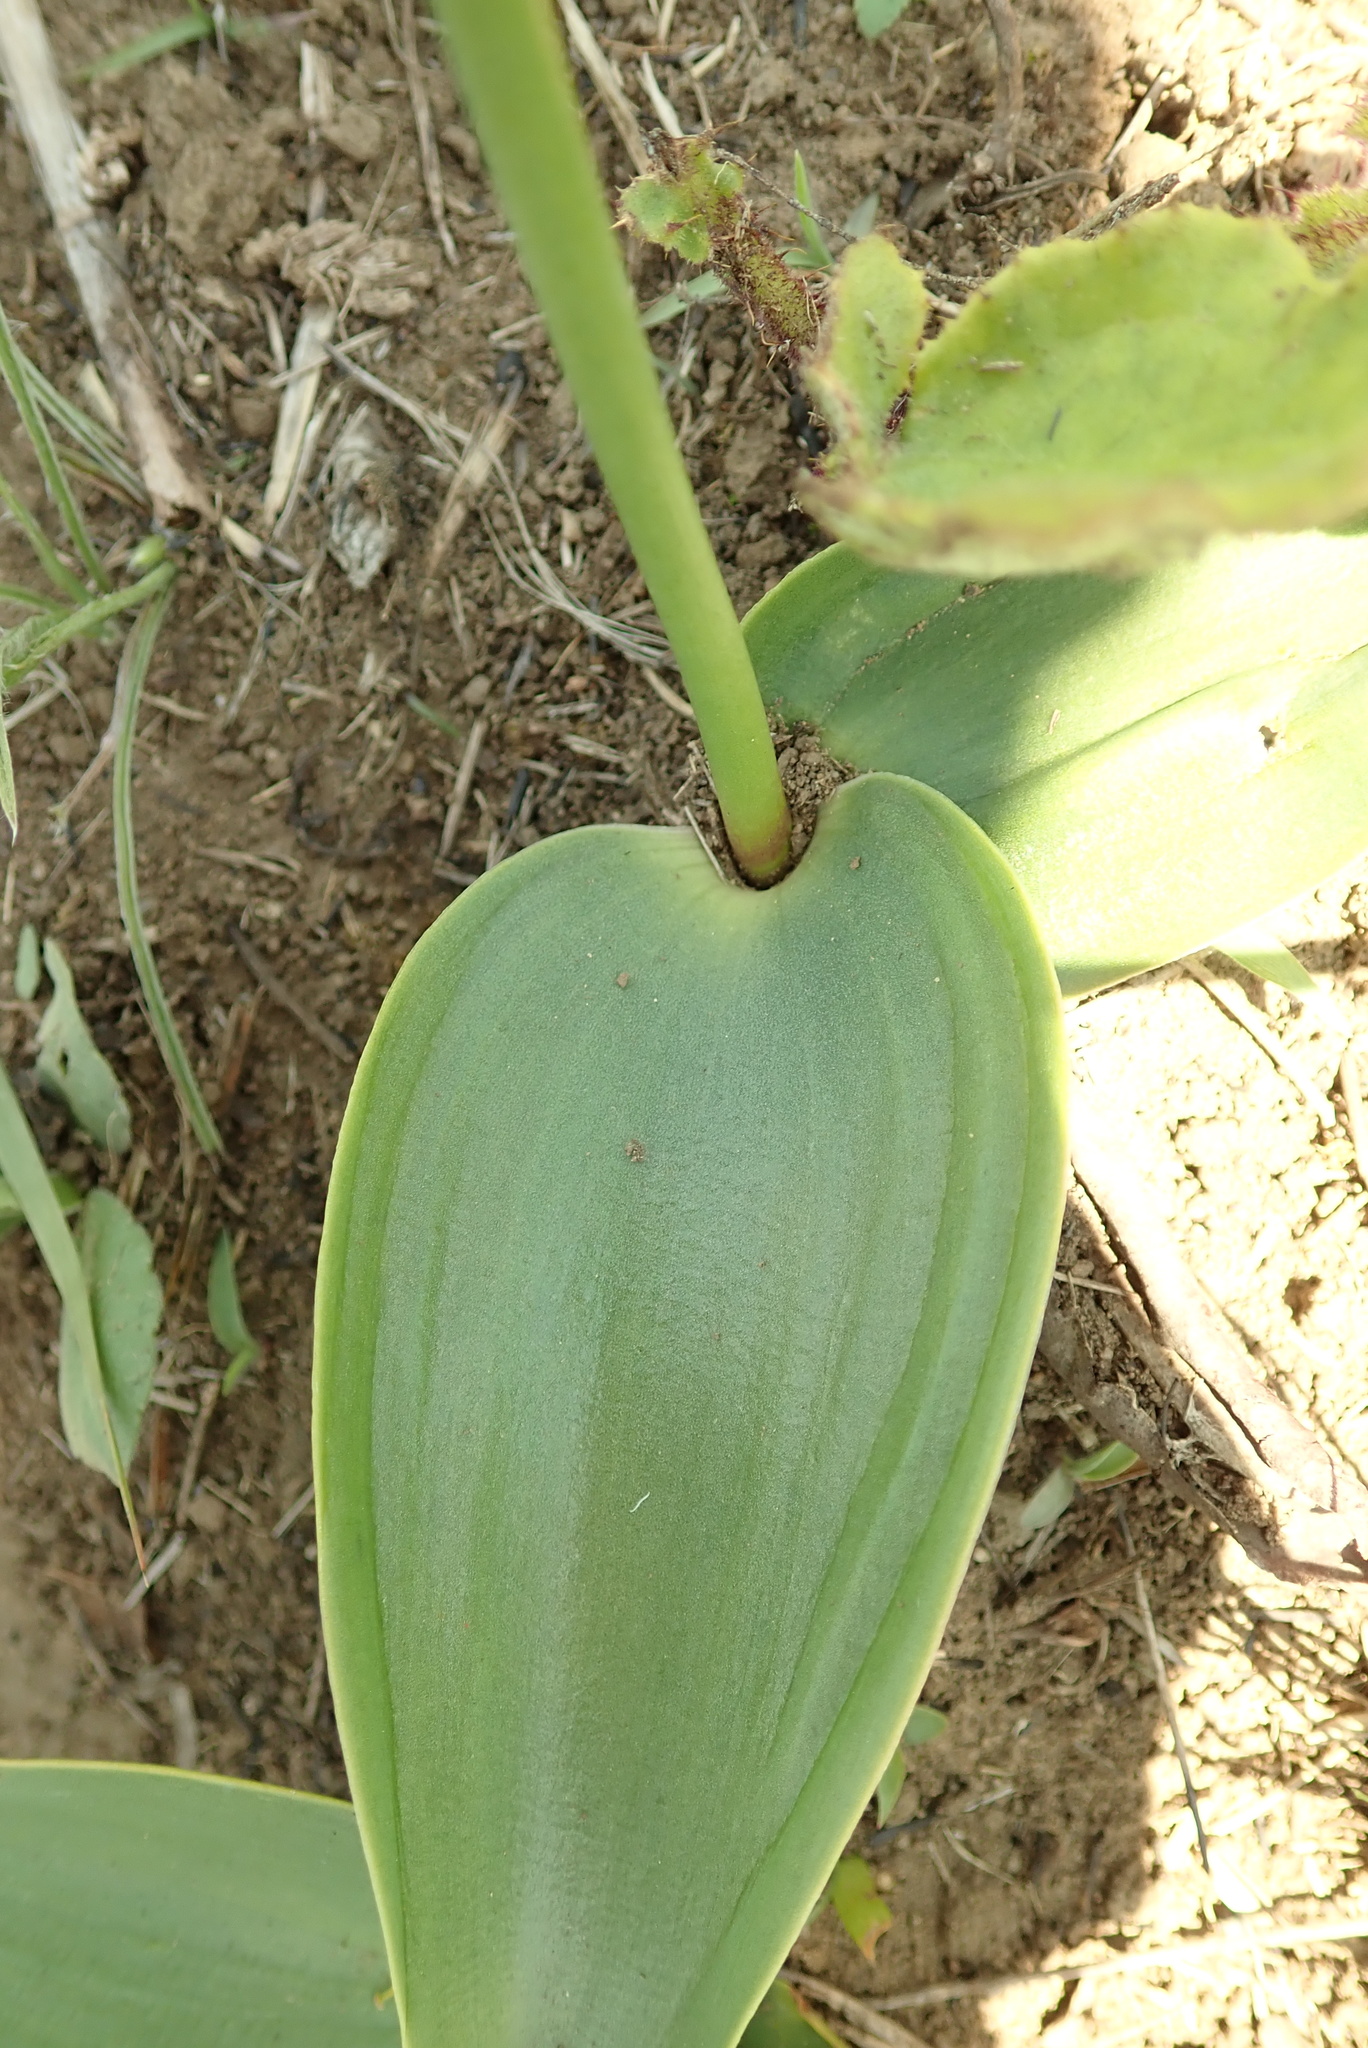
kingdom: Plantae
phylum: Tracheophyta
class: Liliopsida
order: Asparagales
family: Asparagaceae
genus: Eriospermum
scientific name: Eriospermum mackenii
